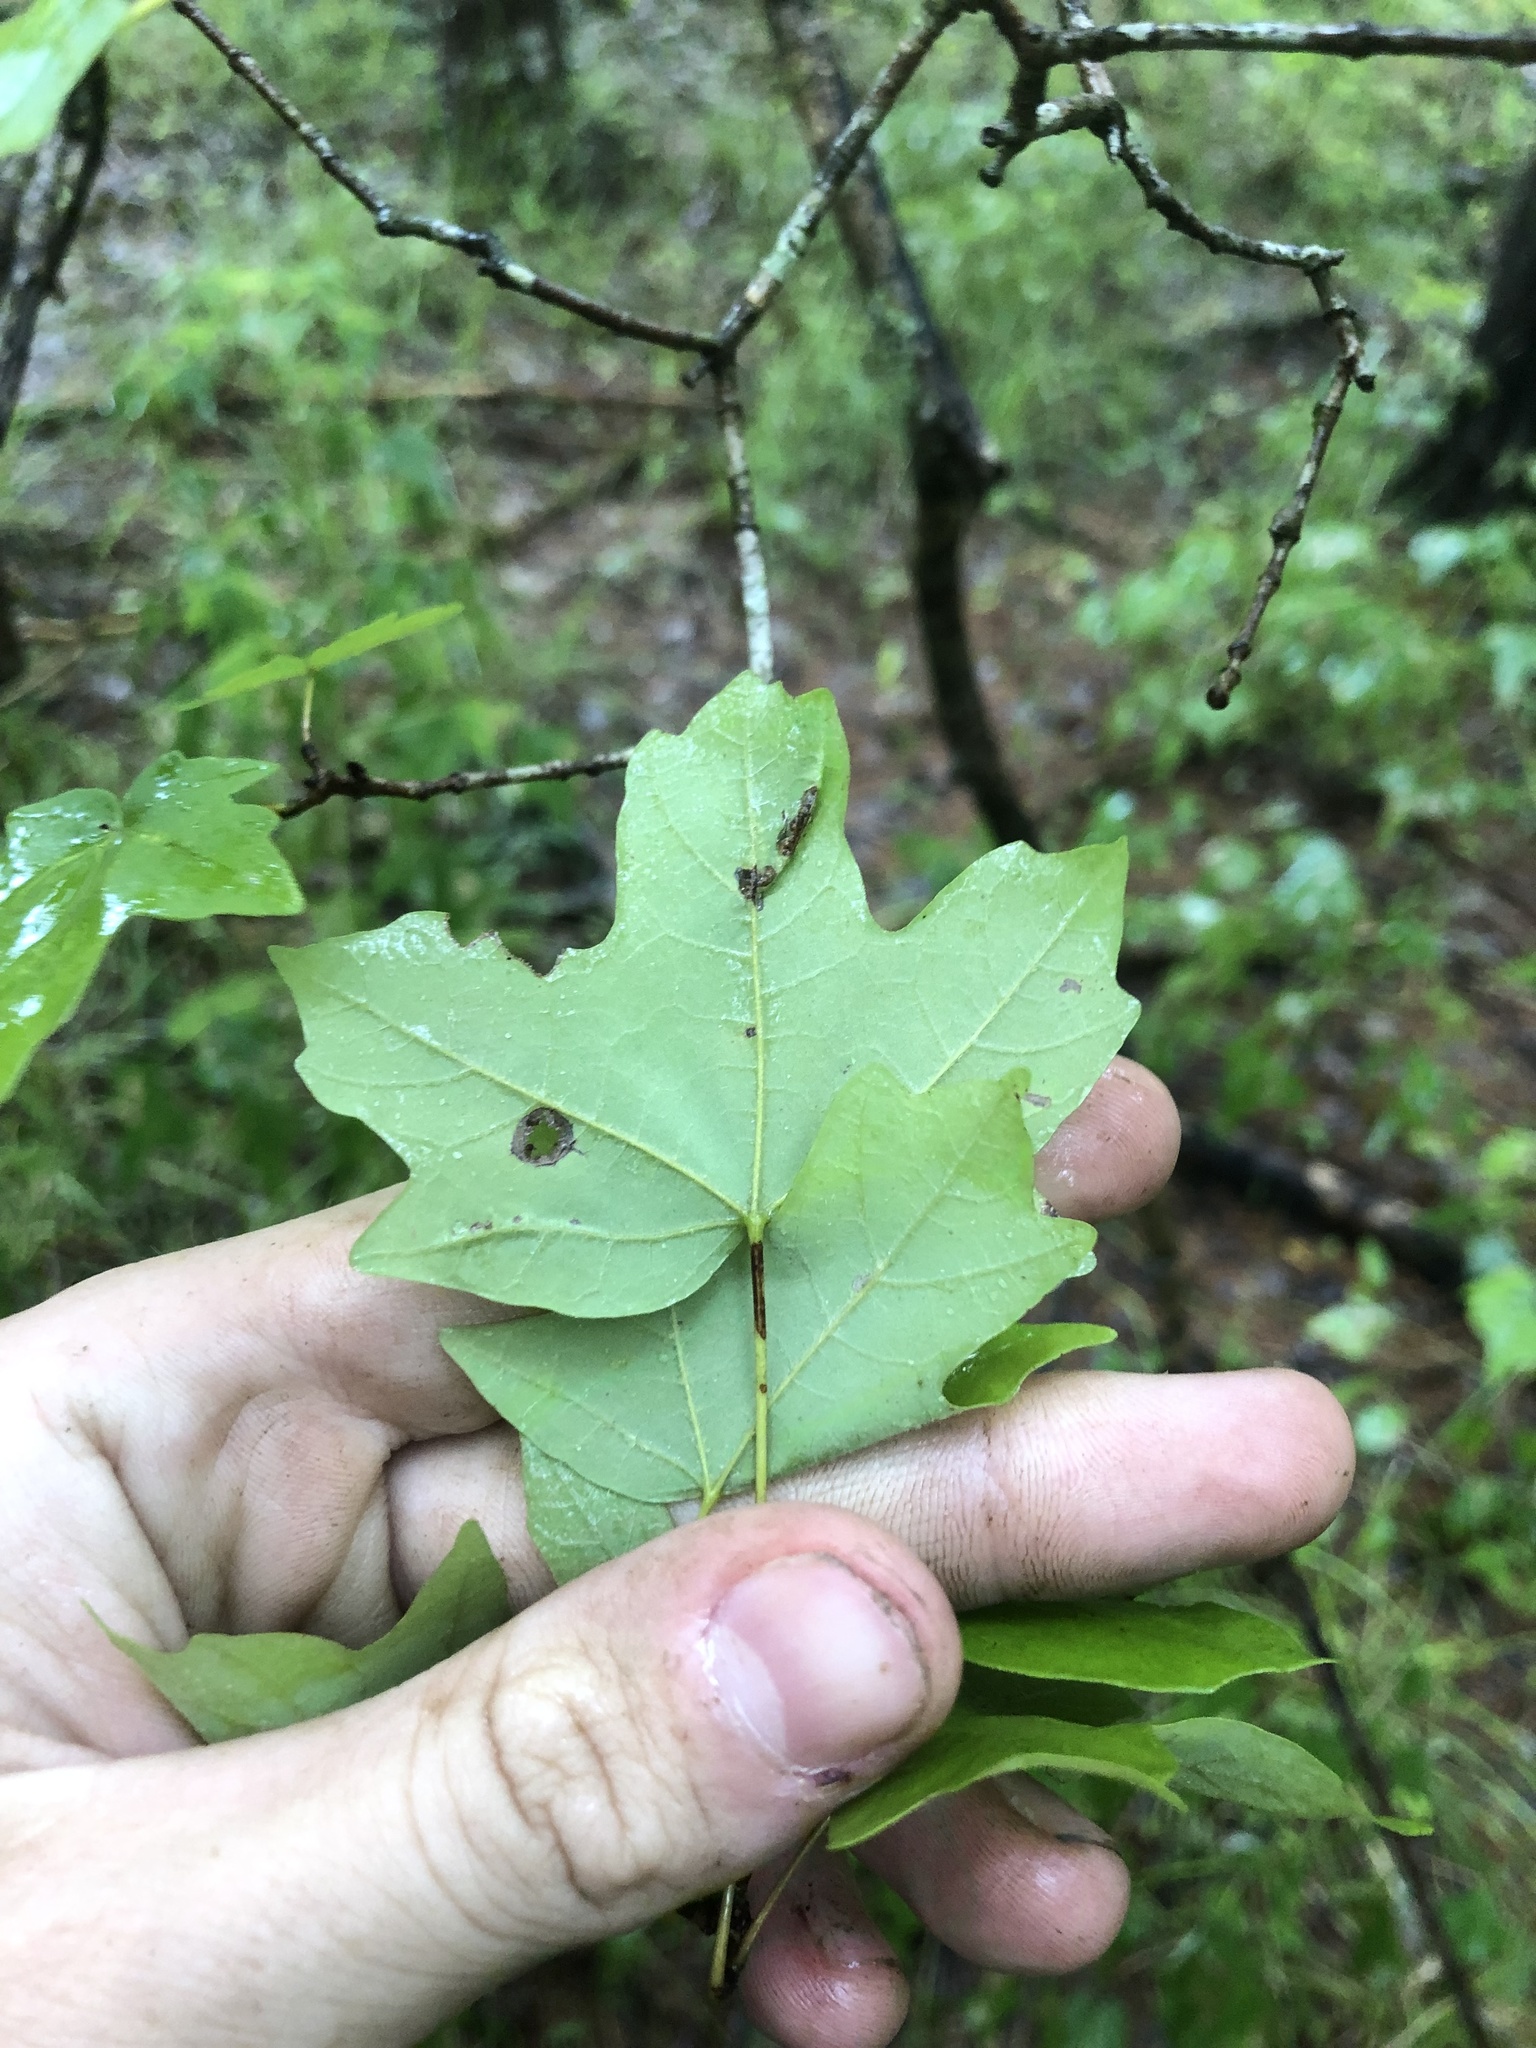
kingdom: Plantae
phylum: Tracheophyta
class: Magnoliopsida
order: Sapindales
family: Sapindaceae
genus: Acer
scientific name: Acer floridanum
